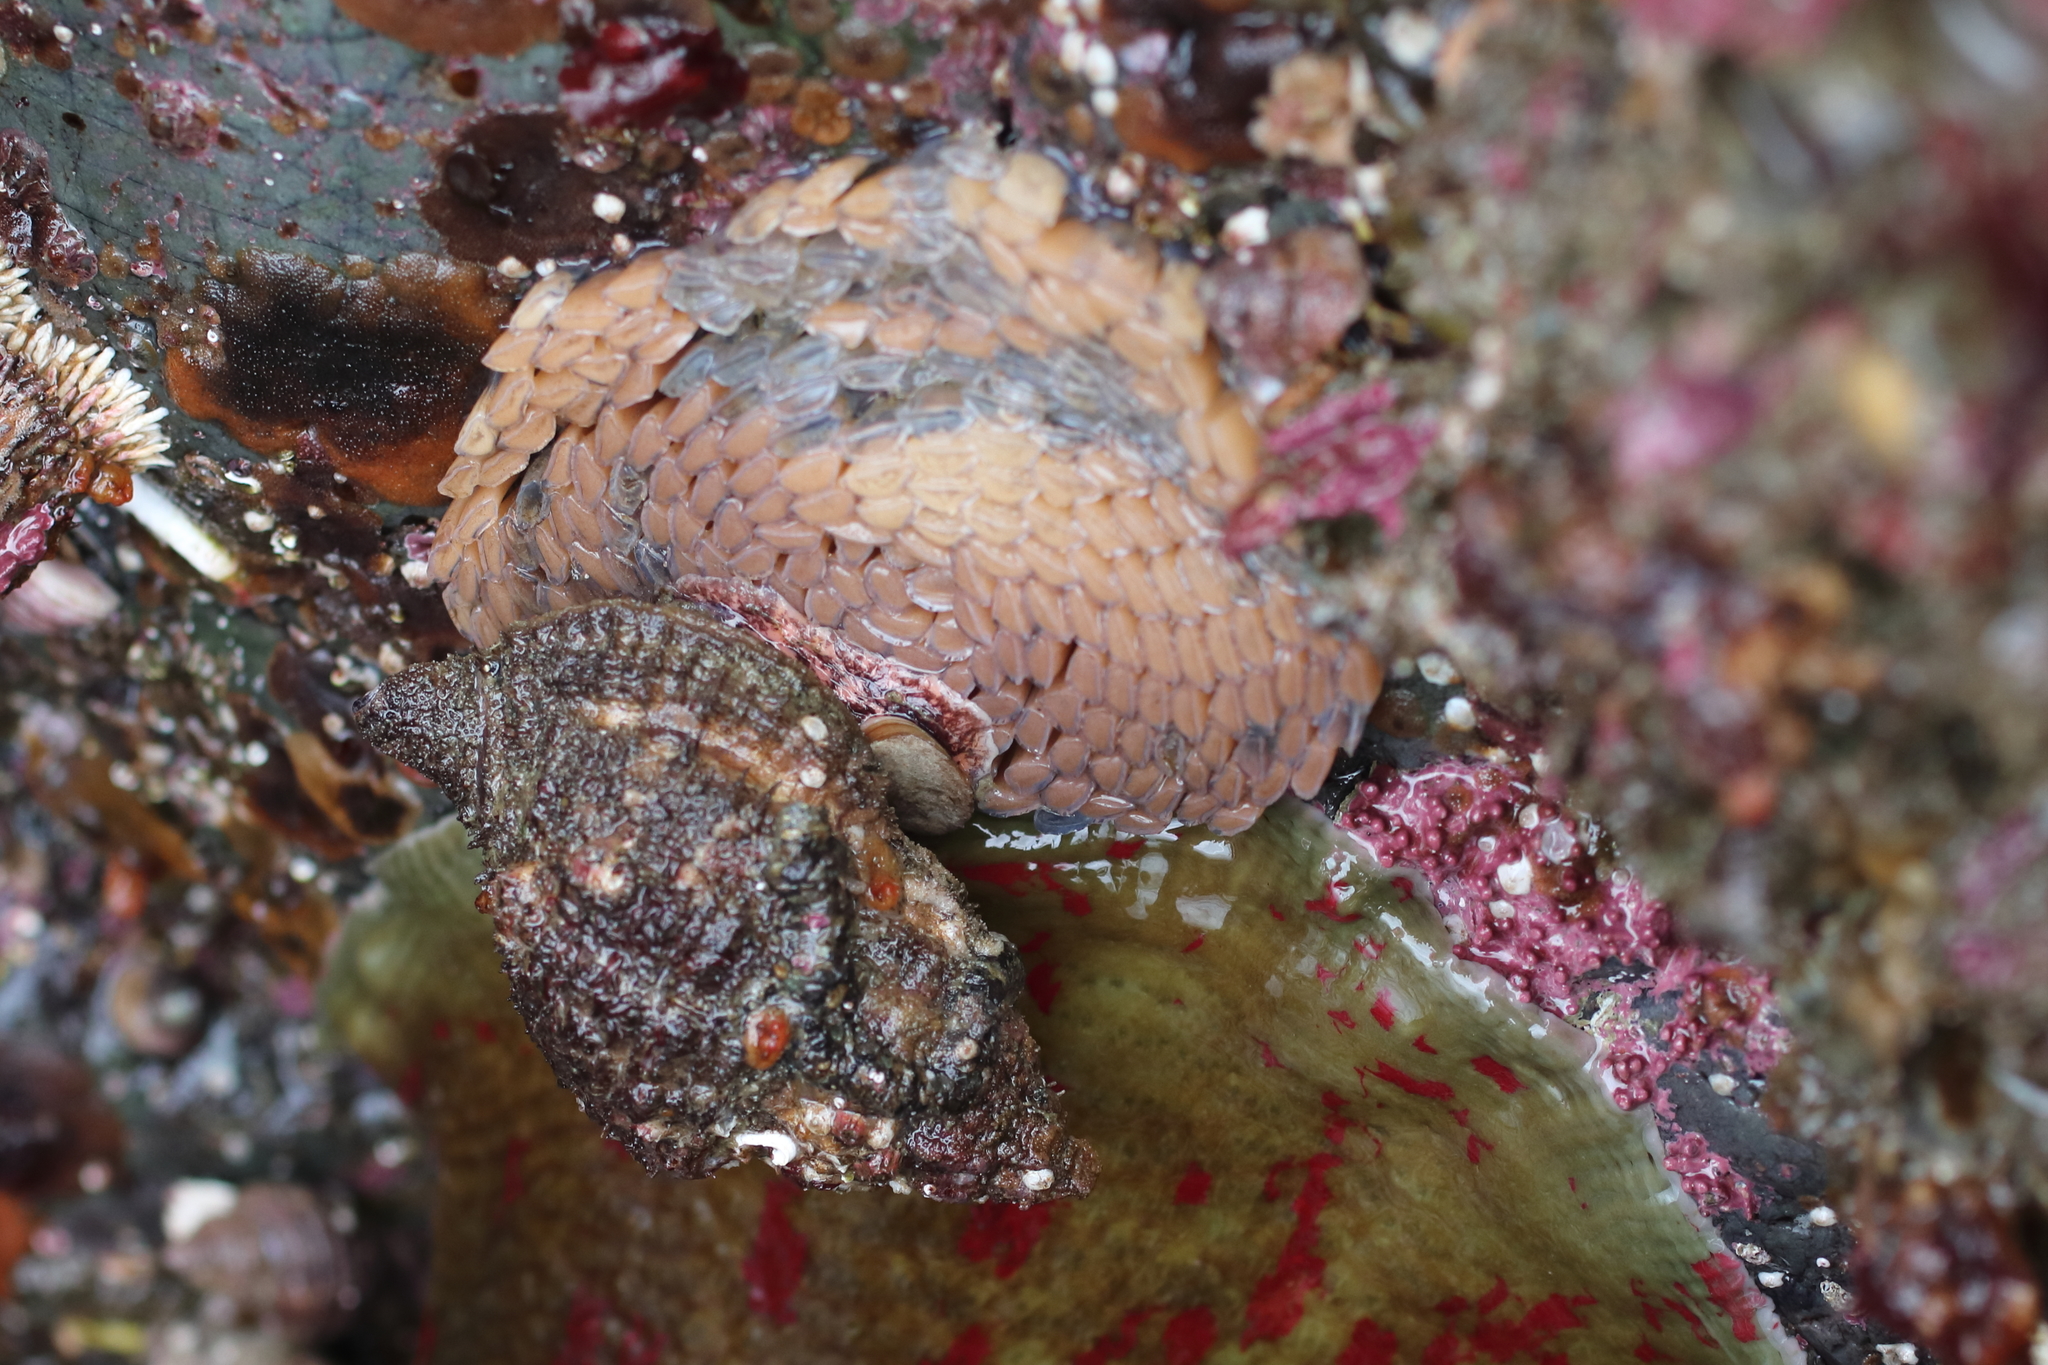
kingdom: Animalia
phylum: Mollusca
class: Gastropoda
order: Littorinimorpha
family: Cymatiidae
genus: Fusitriton
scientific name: Fusitriton oregonensis
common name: Oregon hairy triton
